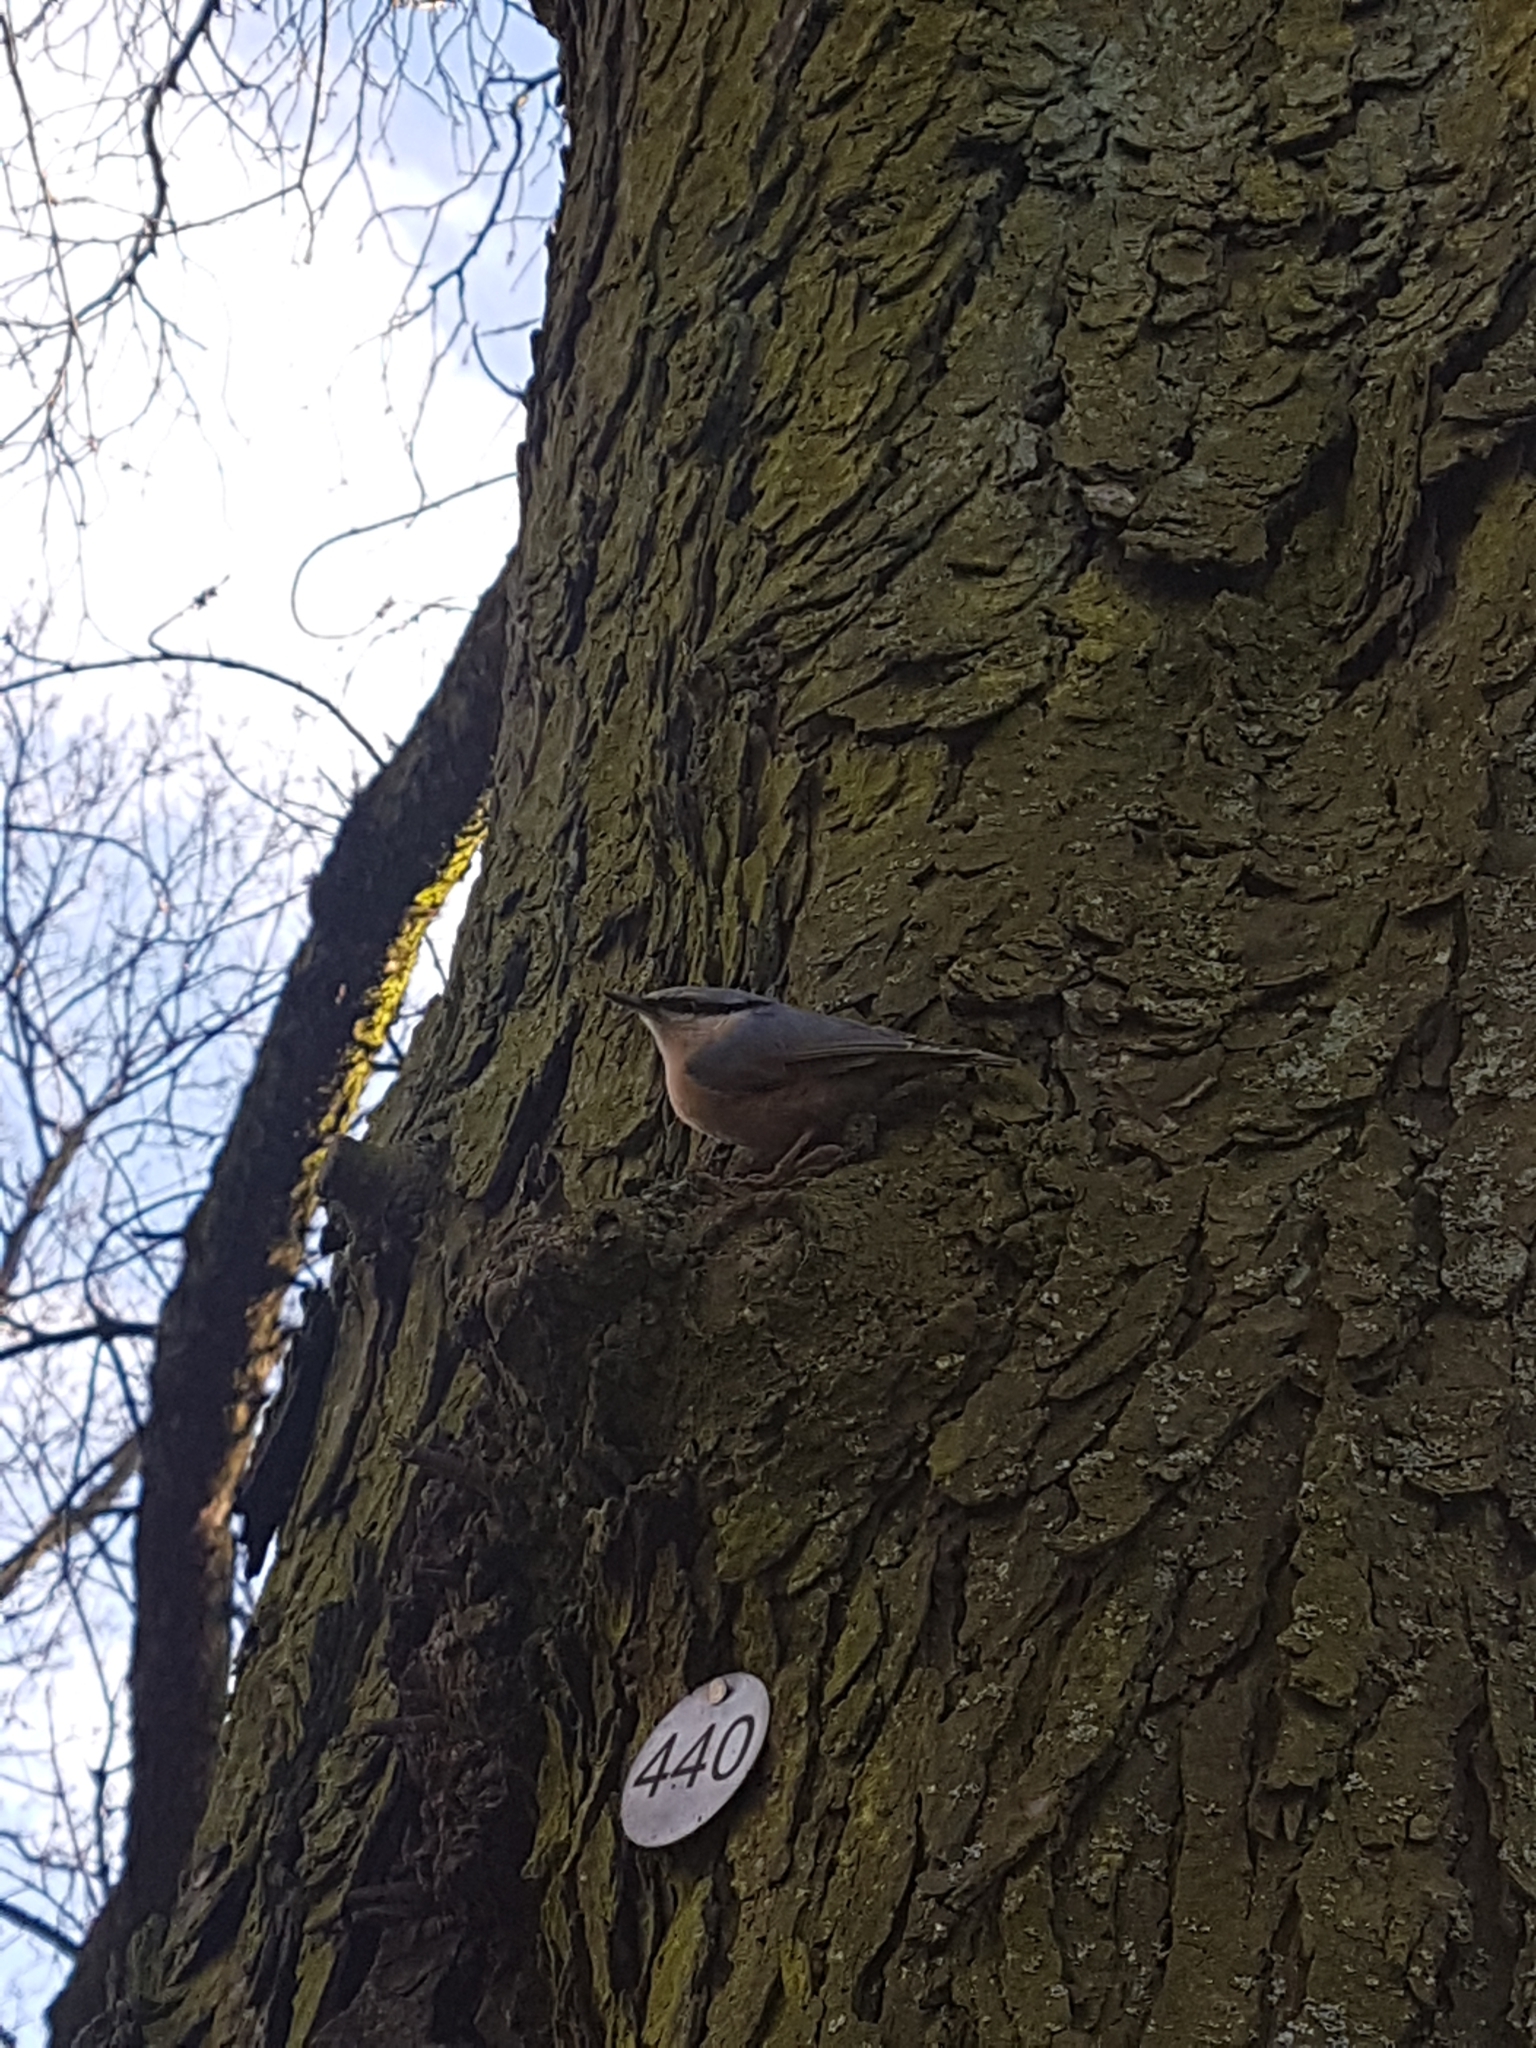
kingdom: Animalia
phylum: Chordata
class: Aves
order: Passeriformes
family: Sittidae
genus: Sitta
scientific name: Sitta europaea
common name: Eurasian nuthatch
